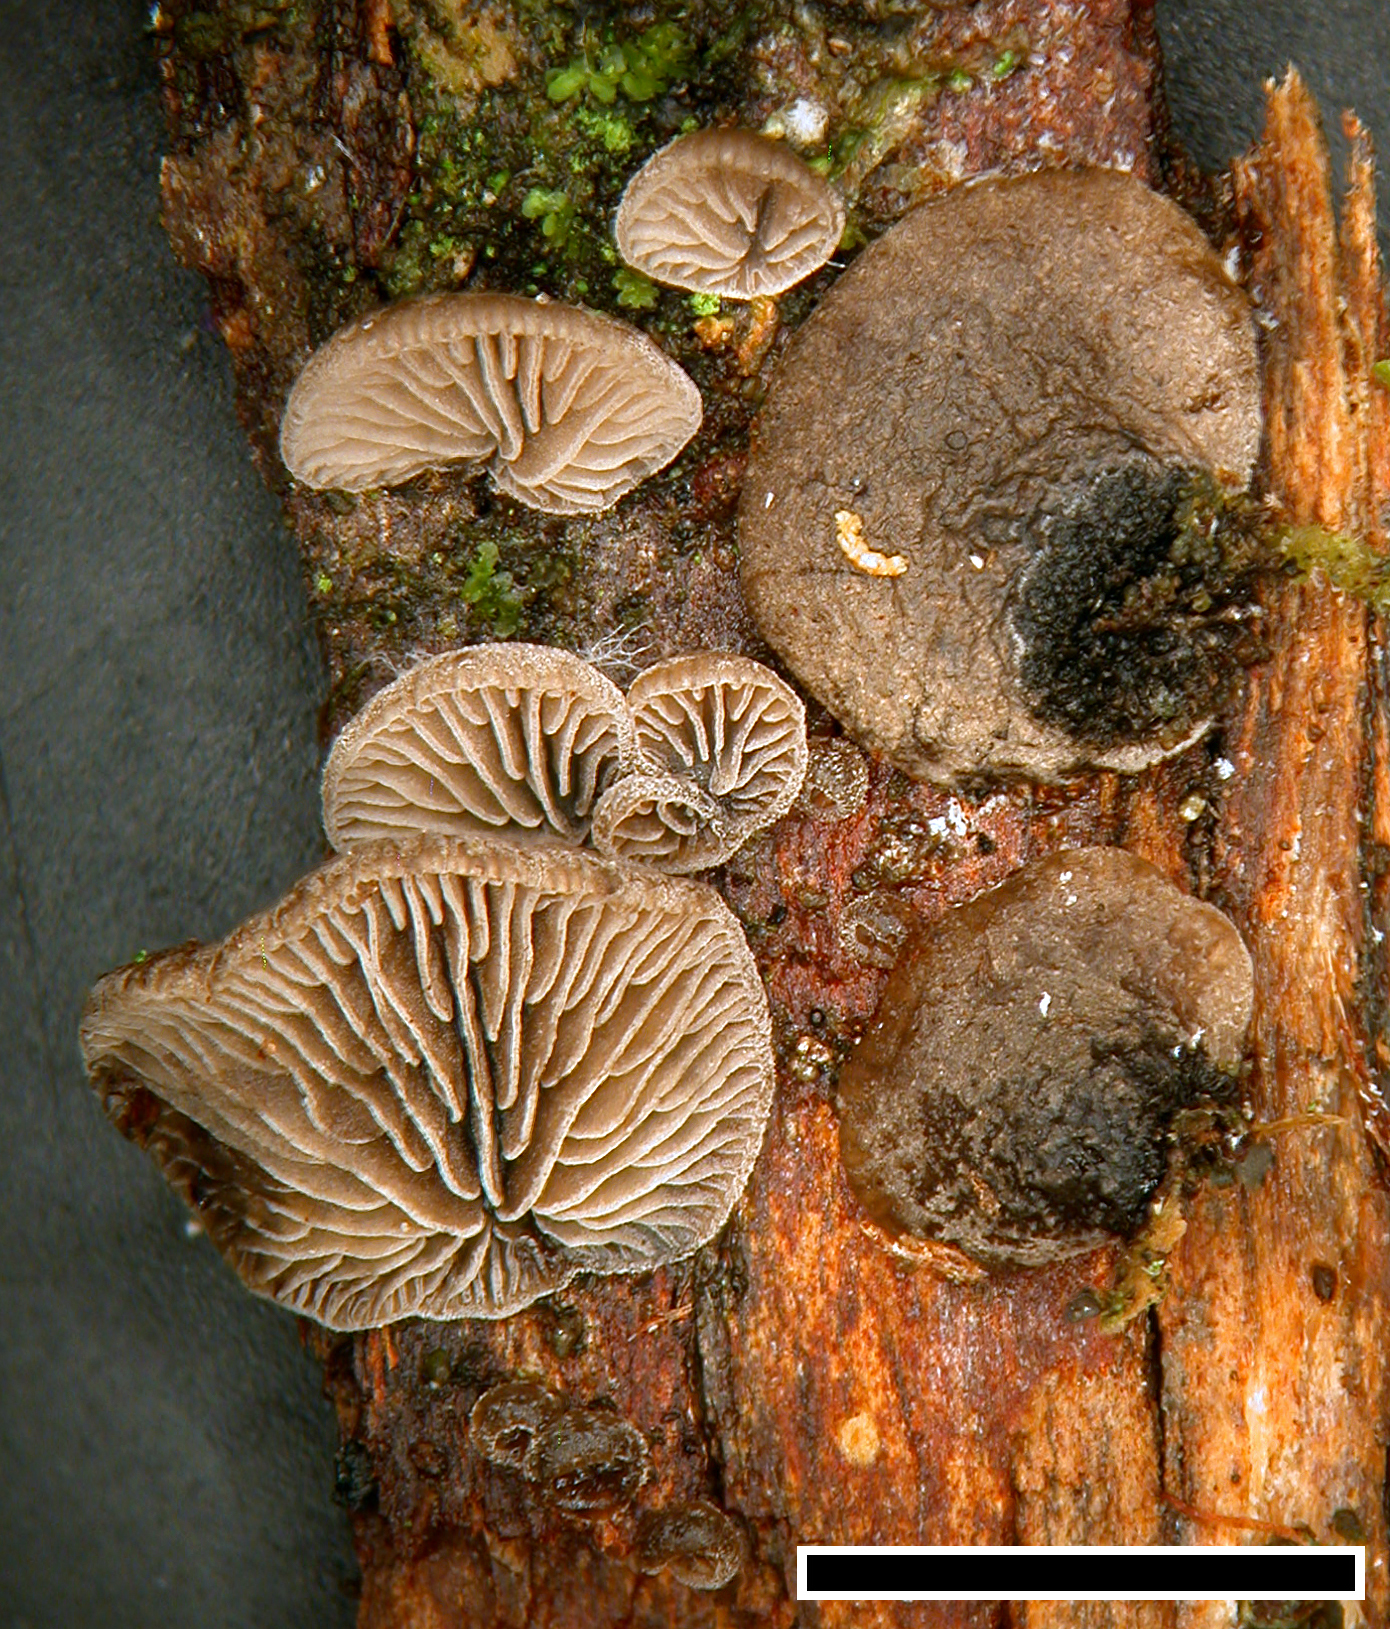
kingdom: Fungi
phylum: Basidiomycota
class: Agaricomycetes
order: Agaricales
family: Pleurotaceae
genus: Resupinatus
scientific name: Resupinatus trichotis
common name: Hairy oysterling
